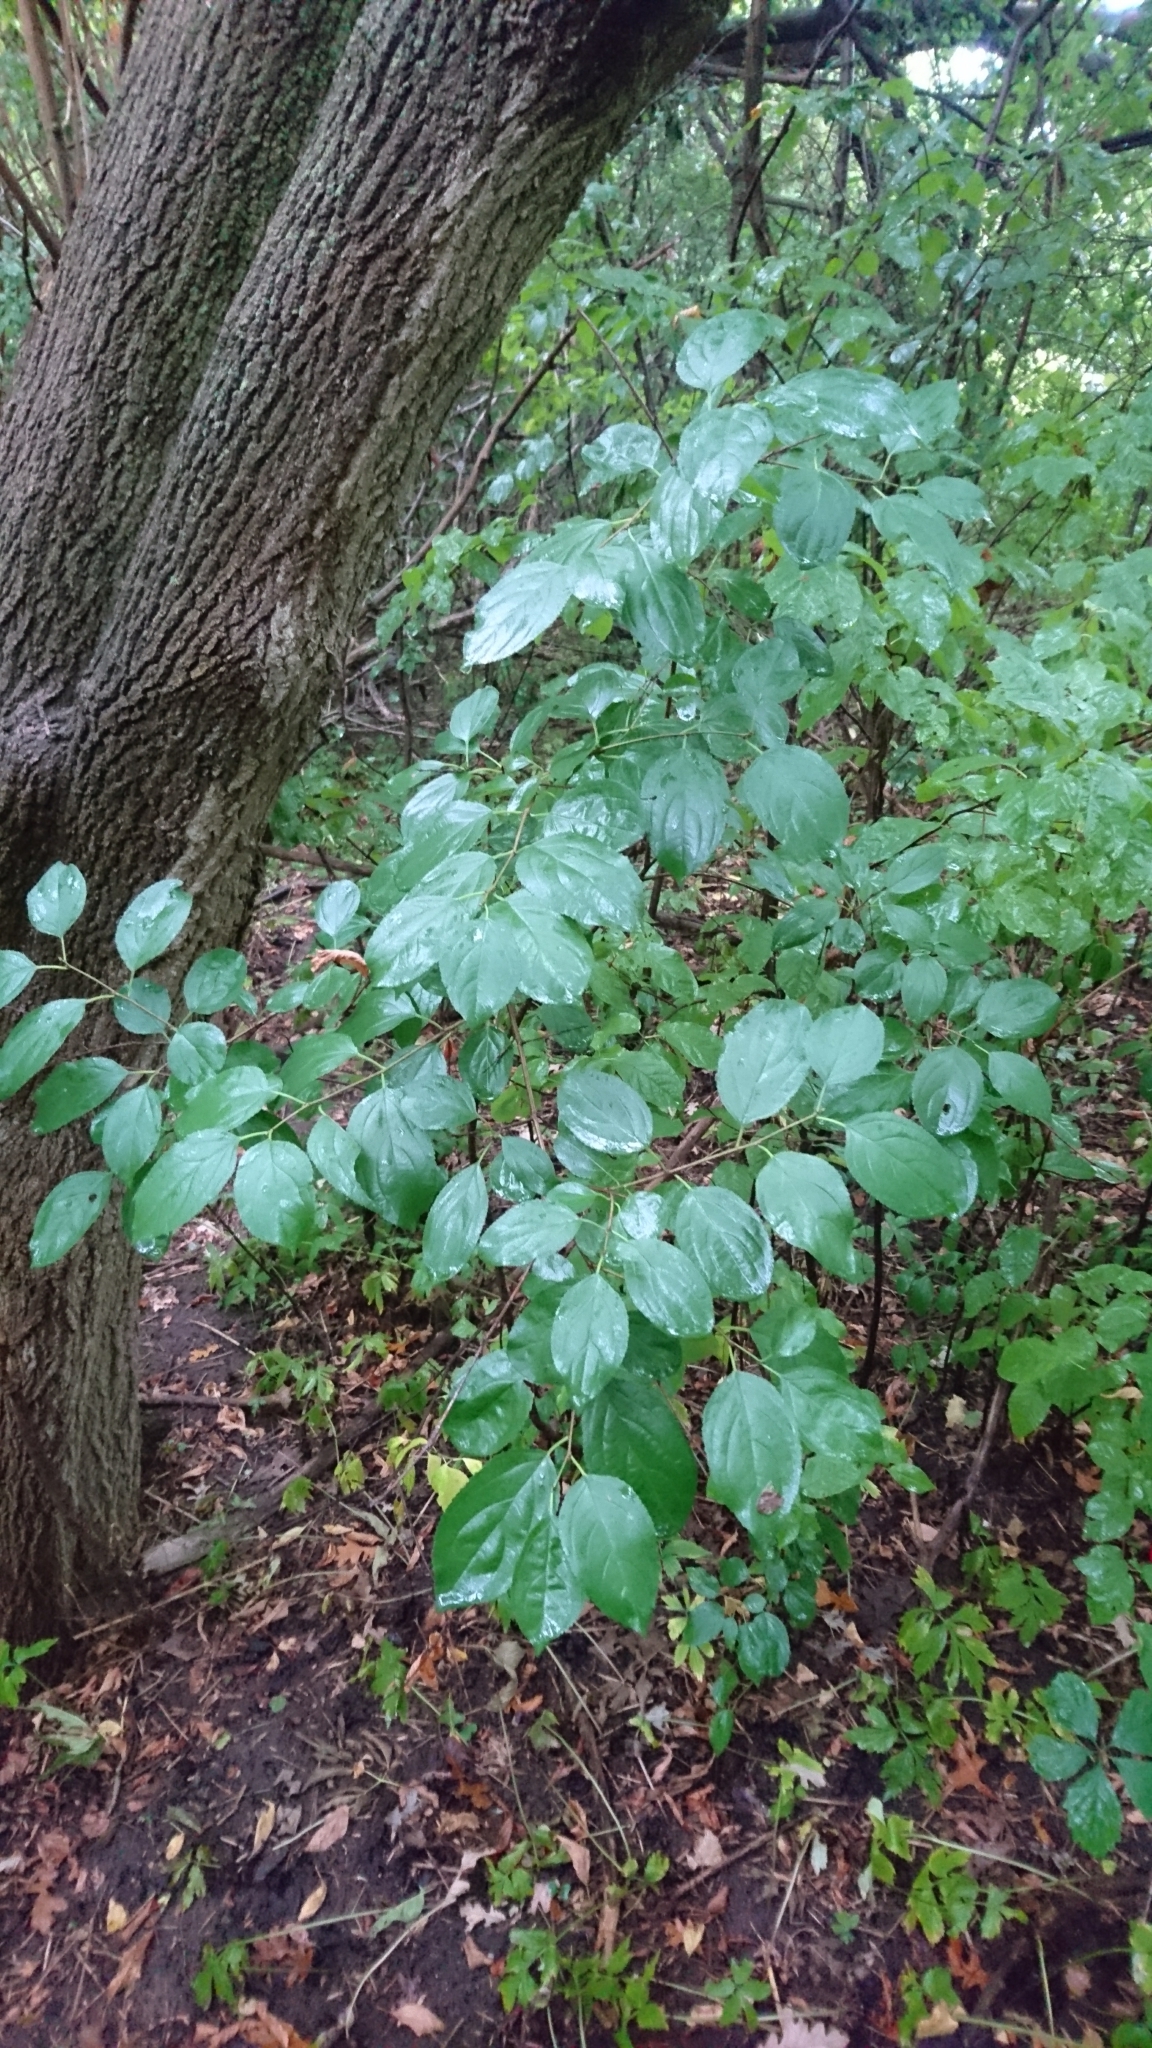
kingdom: Plantae
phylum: Tracheophyta
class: Magnoliopsida
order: Rosales
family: Rhamnaceae
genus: Rhamnus
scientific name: Rhamnus cathartica
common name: Common buckthorn
